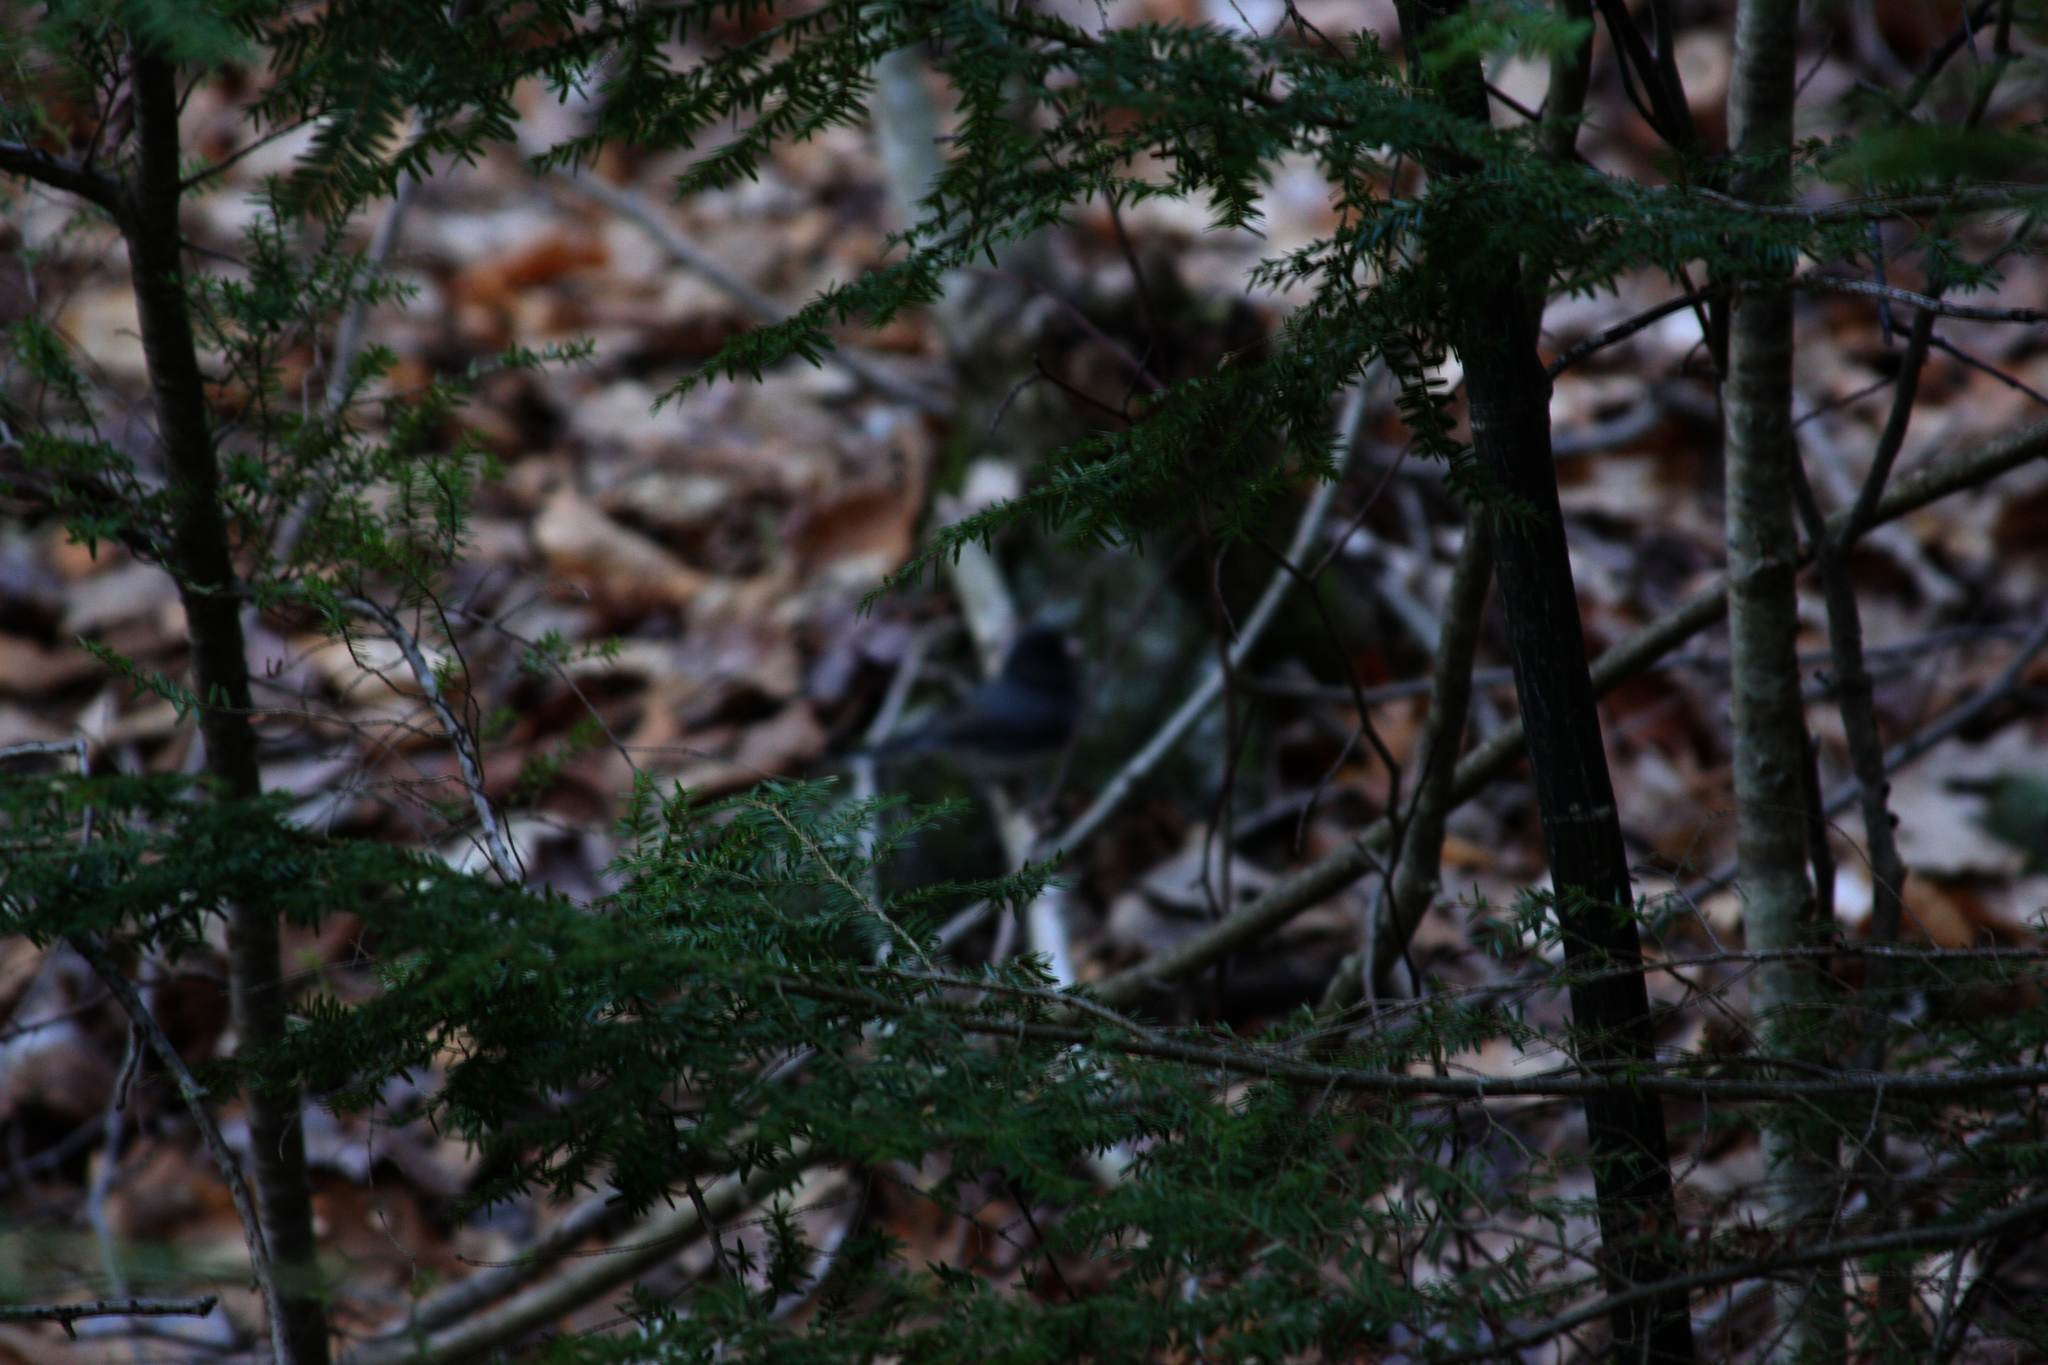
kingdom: Plantae
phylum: Tracheophyta
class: Pinopsida
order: Pinales
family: Pinaceae
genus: Tsuga
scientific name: Tsuga canadensis
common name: Eastern hemlock
